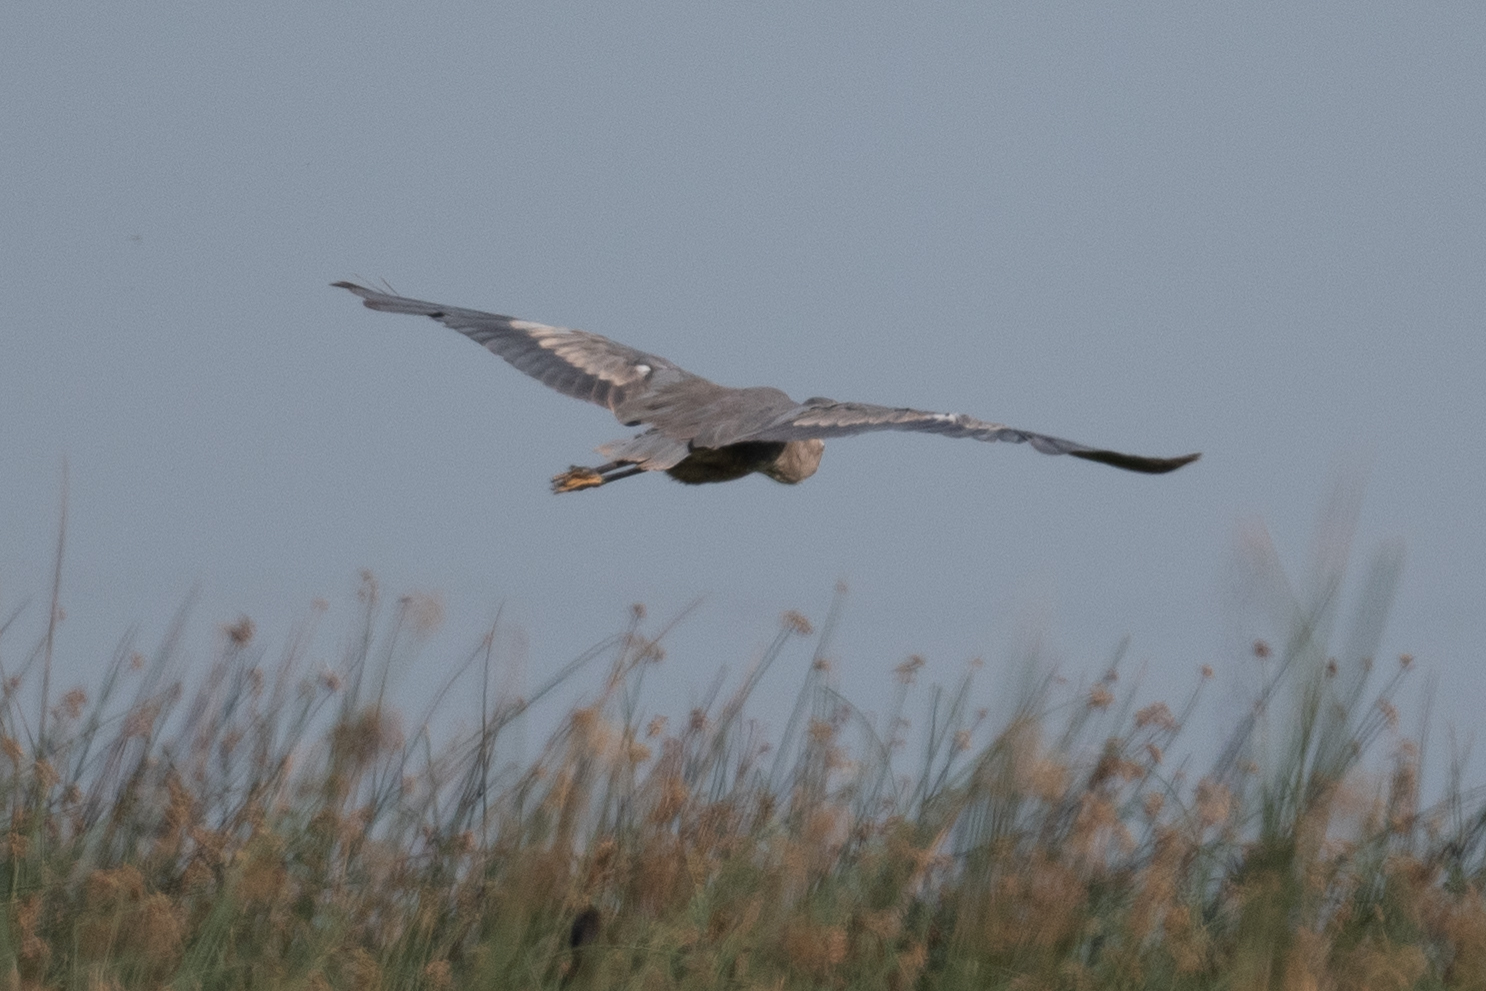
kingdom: Animalia
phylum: Chordata
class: Aves
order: Pelecaniformes
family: Ardeidae
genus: Ardea
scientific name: Ardea herodias
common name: Great blue heron
